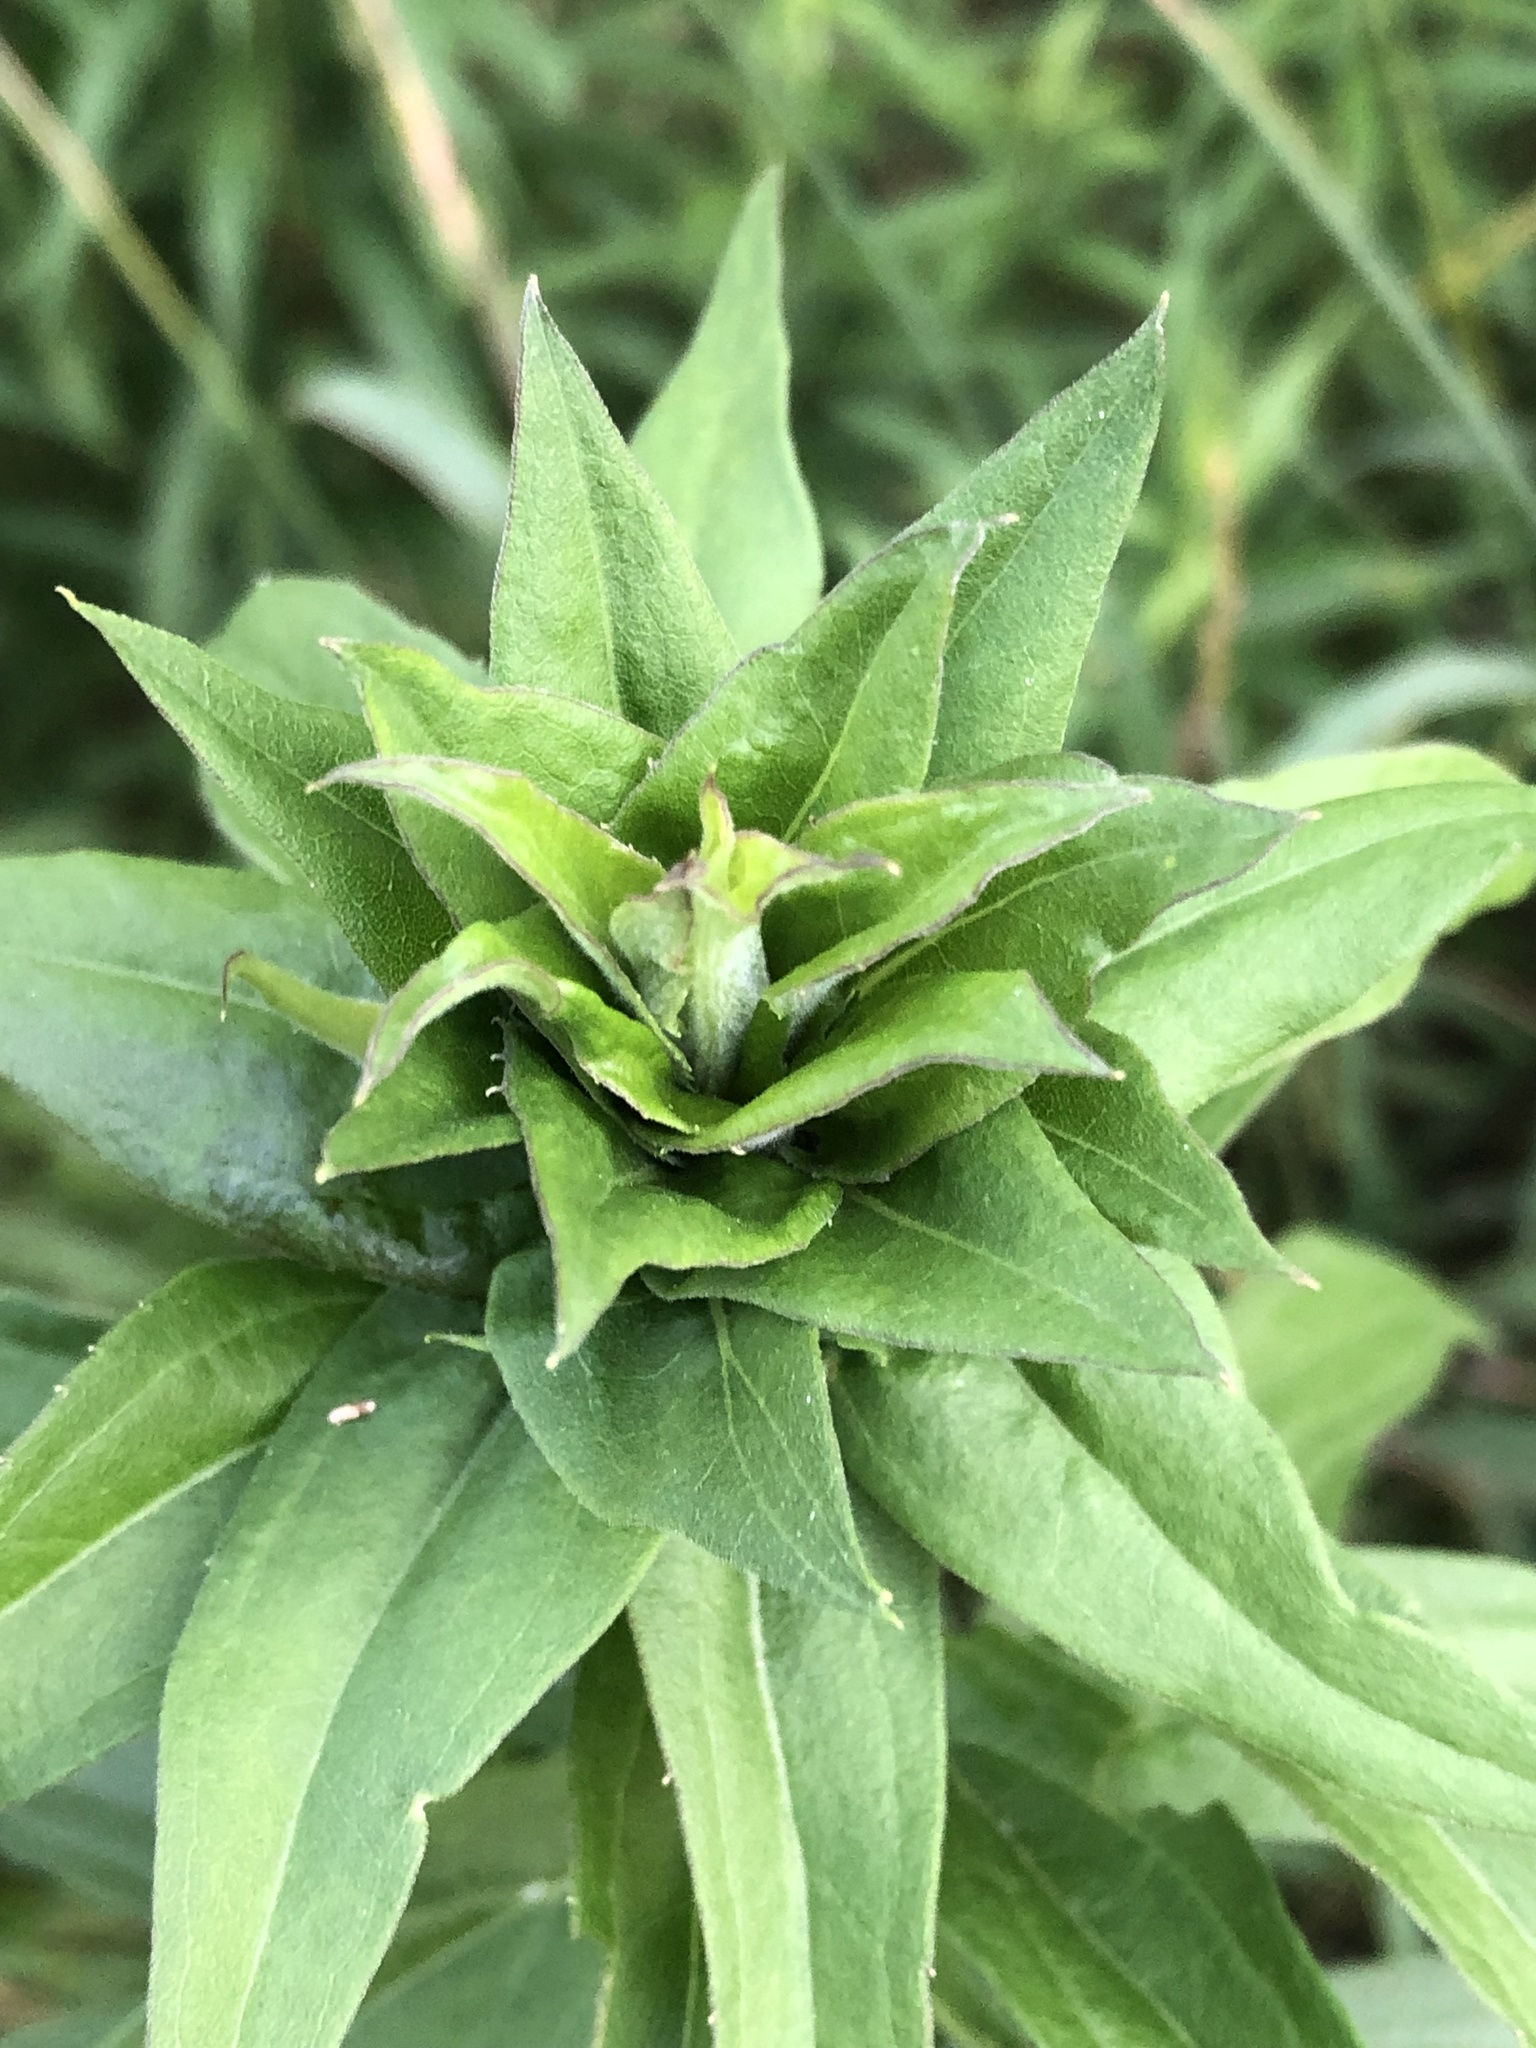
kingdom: Animalia
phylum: Arthropoda
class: Insecta
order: Diptera
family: Cecidomyiidae
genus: Rhopalomyia
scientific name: Rhopalomyia solidaginis
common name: Goldenrod bunch gall midge
